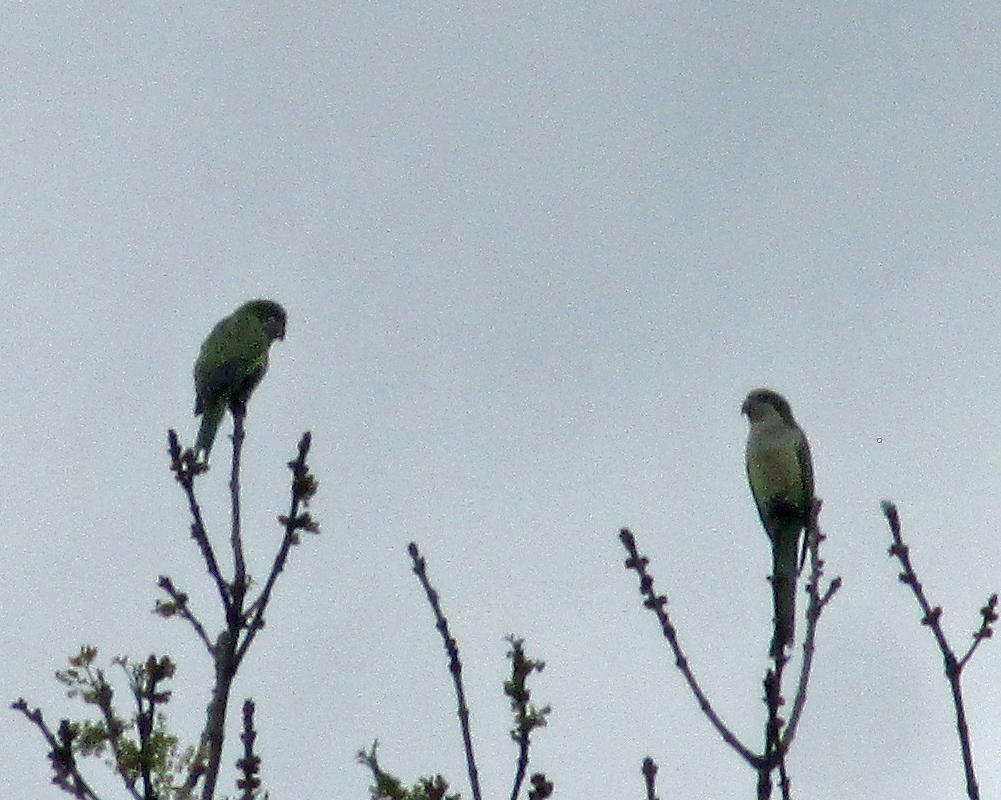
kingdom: Animalia
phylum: Chordata
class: Aves
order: Psittaciformes
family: Psittacidae
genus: Myiopsitta
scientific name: Myiopsitta monachus
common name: Monk parakeet
